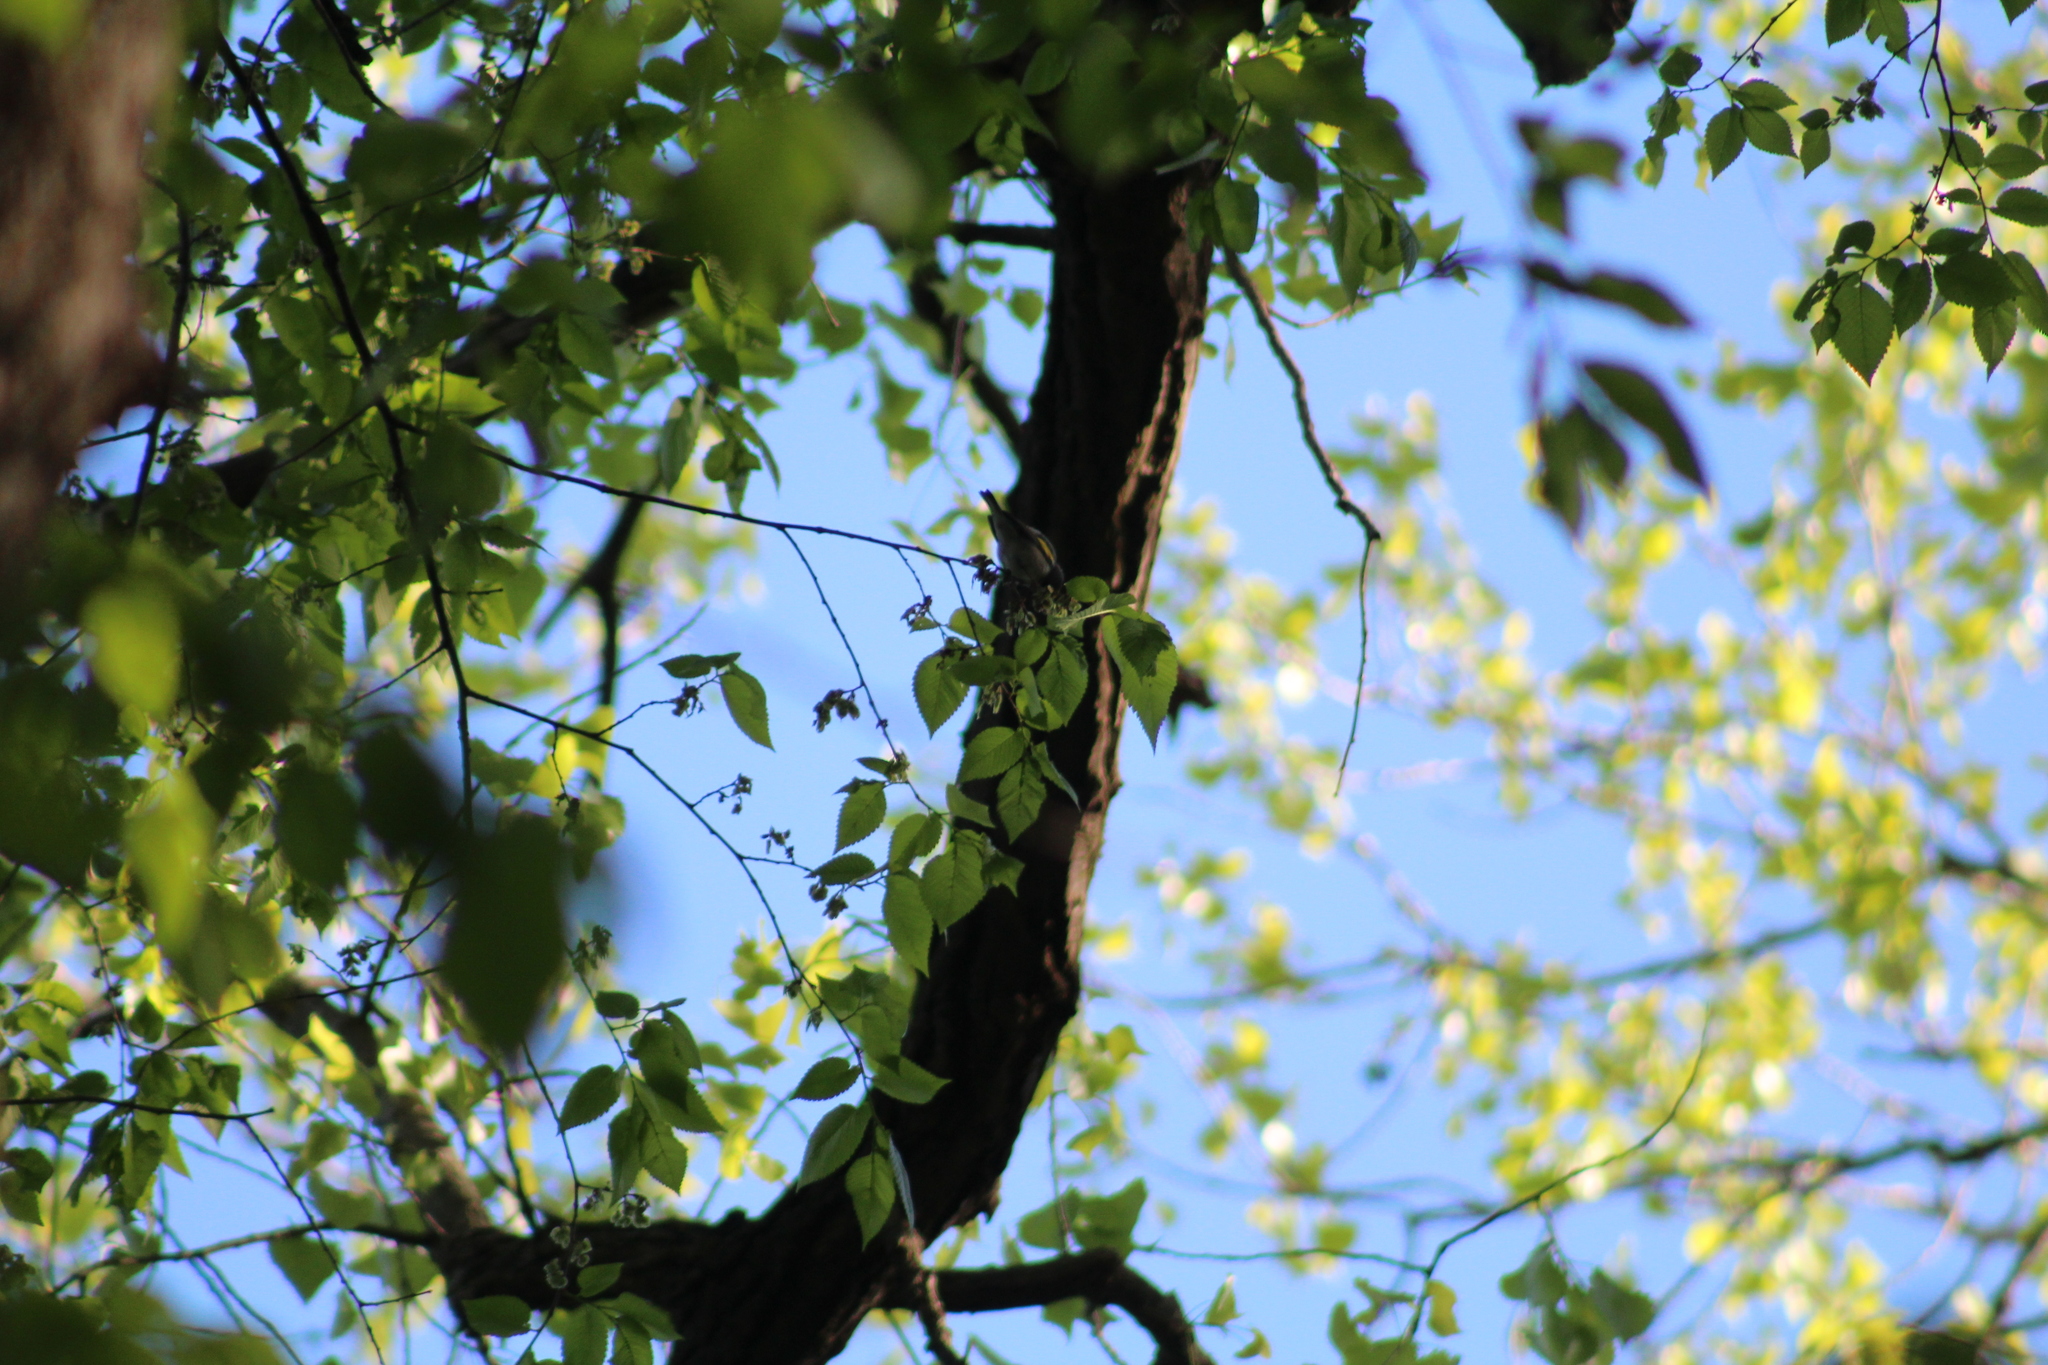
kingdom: Animalia
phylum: Chordata
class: Aves
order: Passeriformes
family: Parulidae
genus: Vermivora
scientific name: Vermivora chrysoptera
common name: Golden-winged warbler
